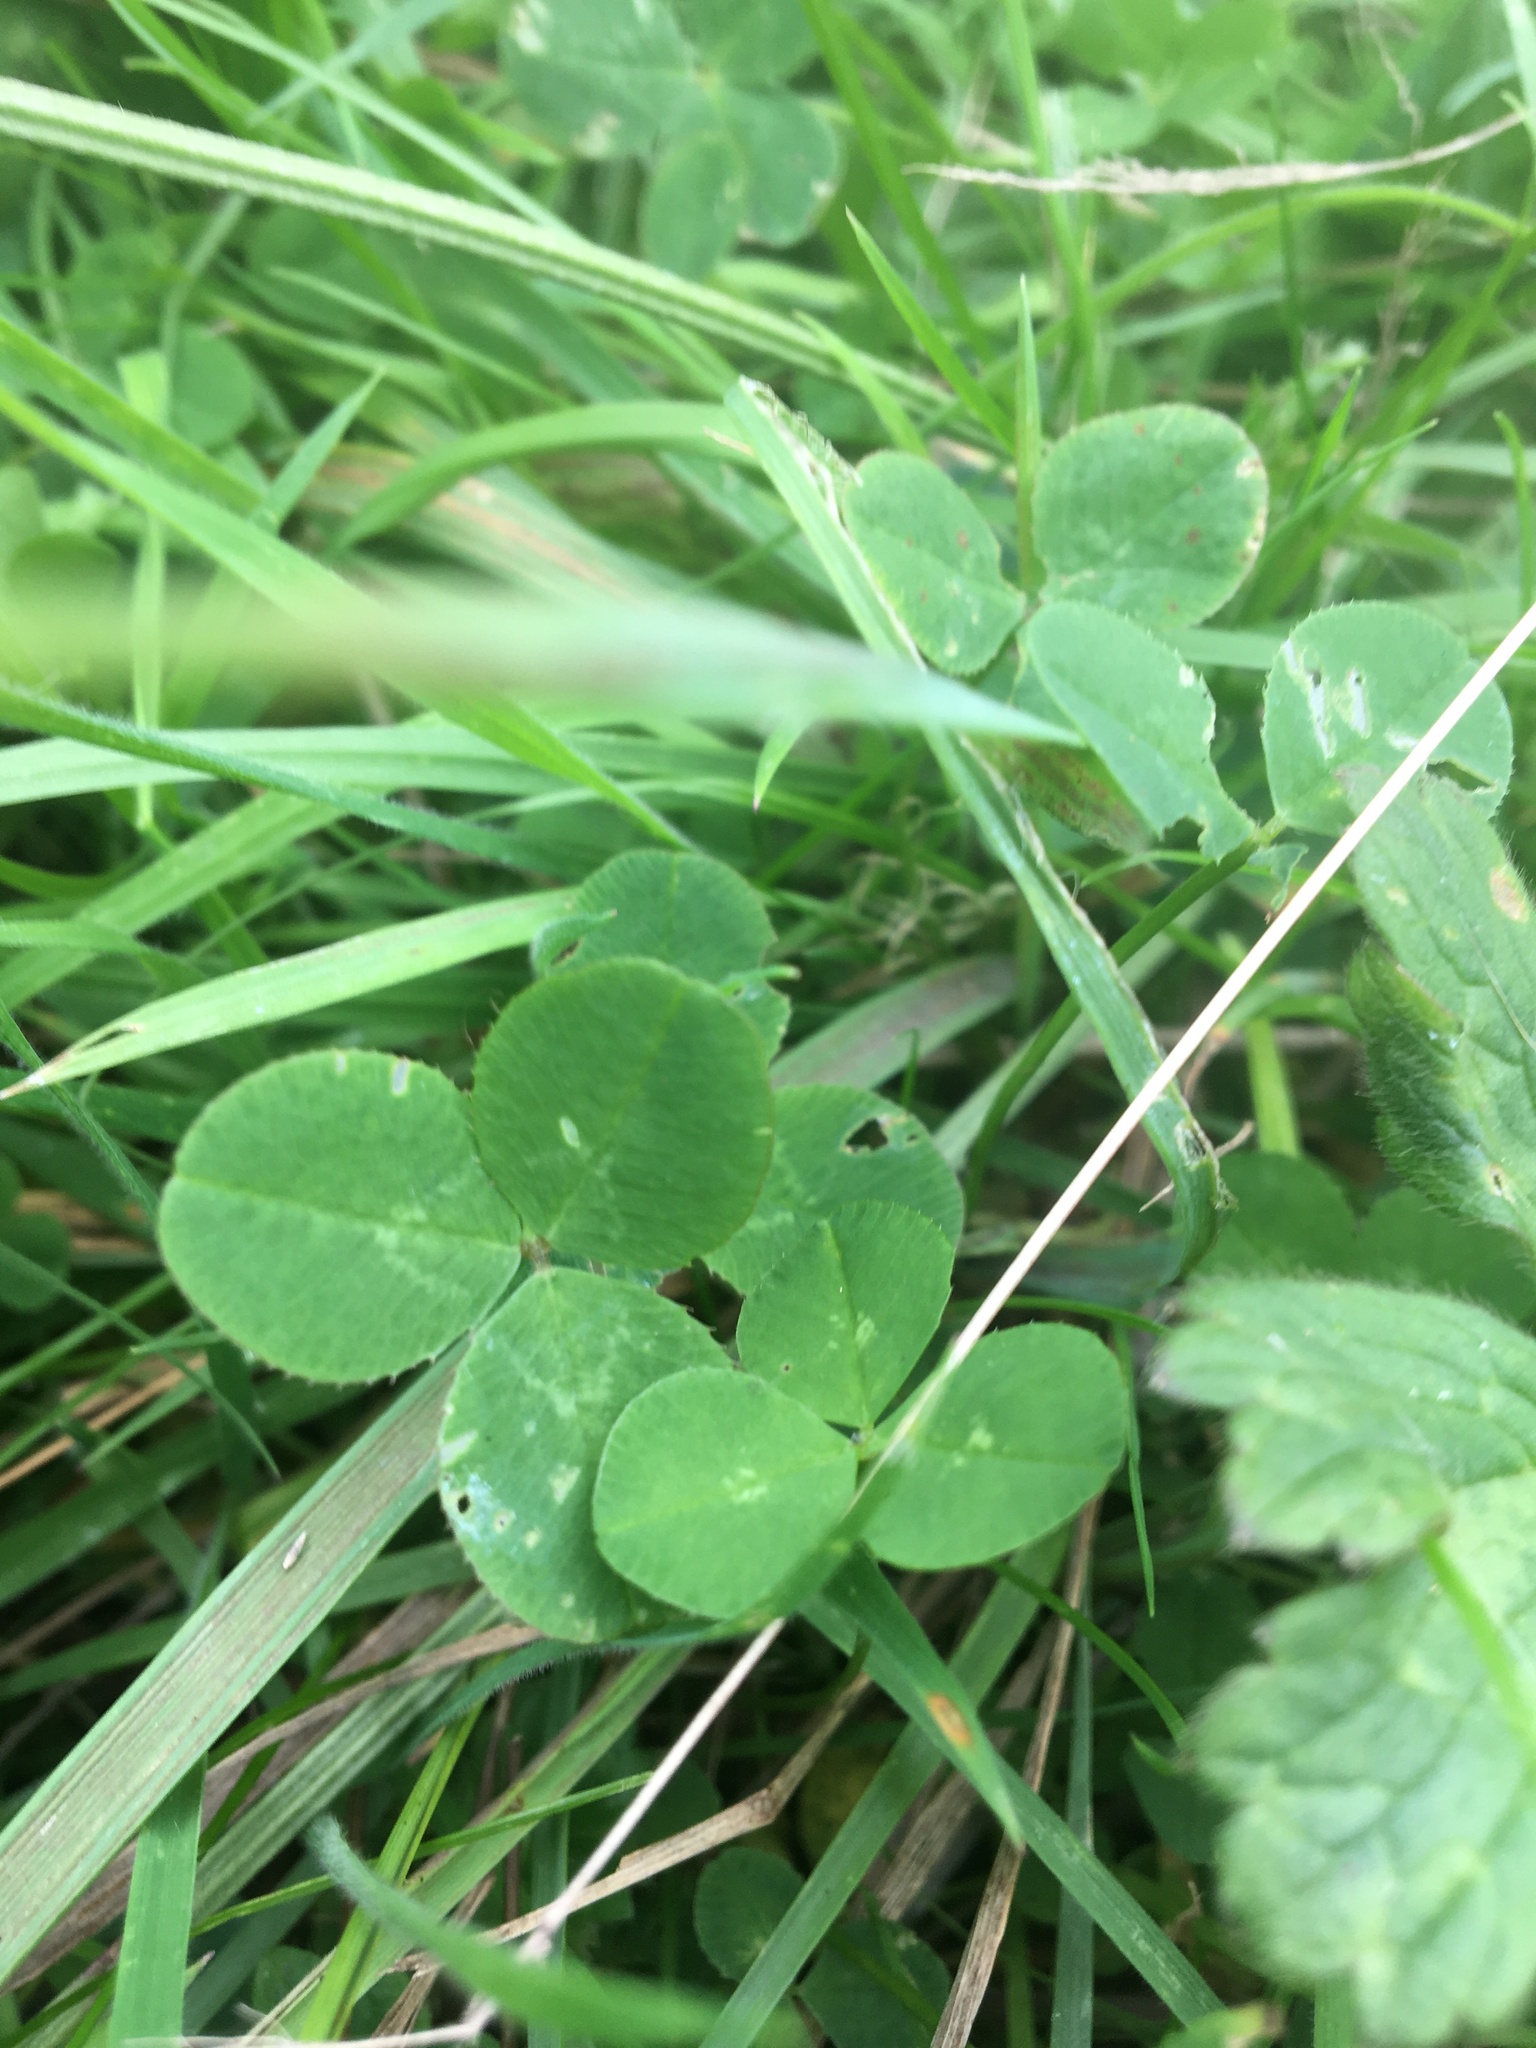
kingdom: Plantae
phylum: Tracheophyta
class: Magnoliopsida
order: Fabales
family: Fabaceae
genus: Trifolium
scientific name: Trifolium repens
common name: White clover
